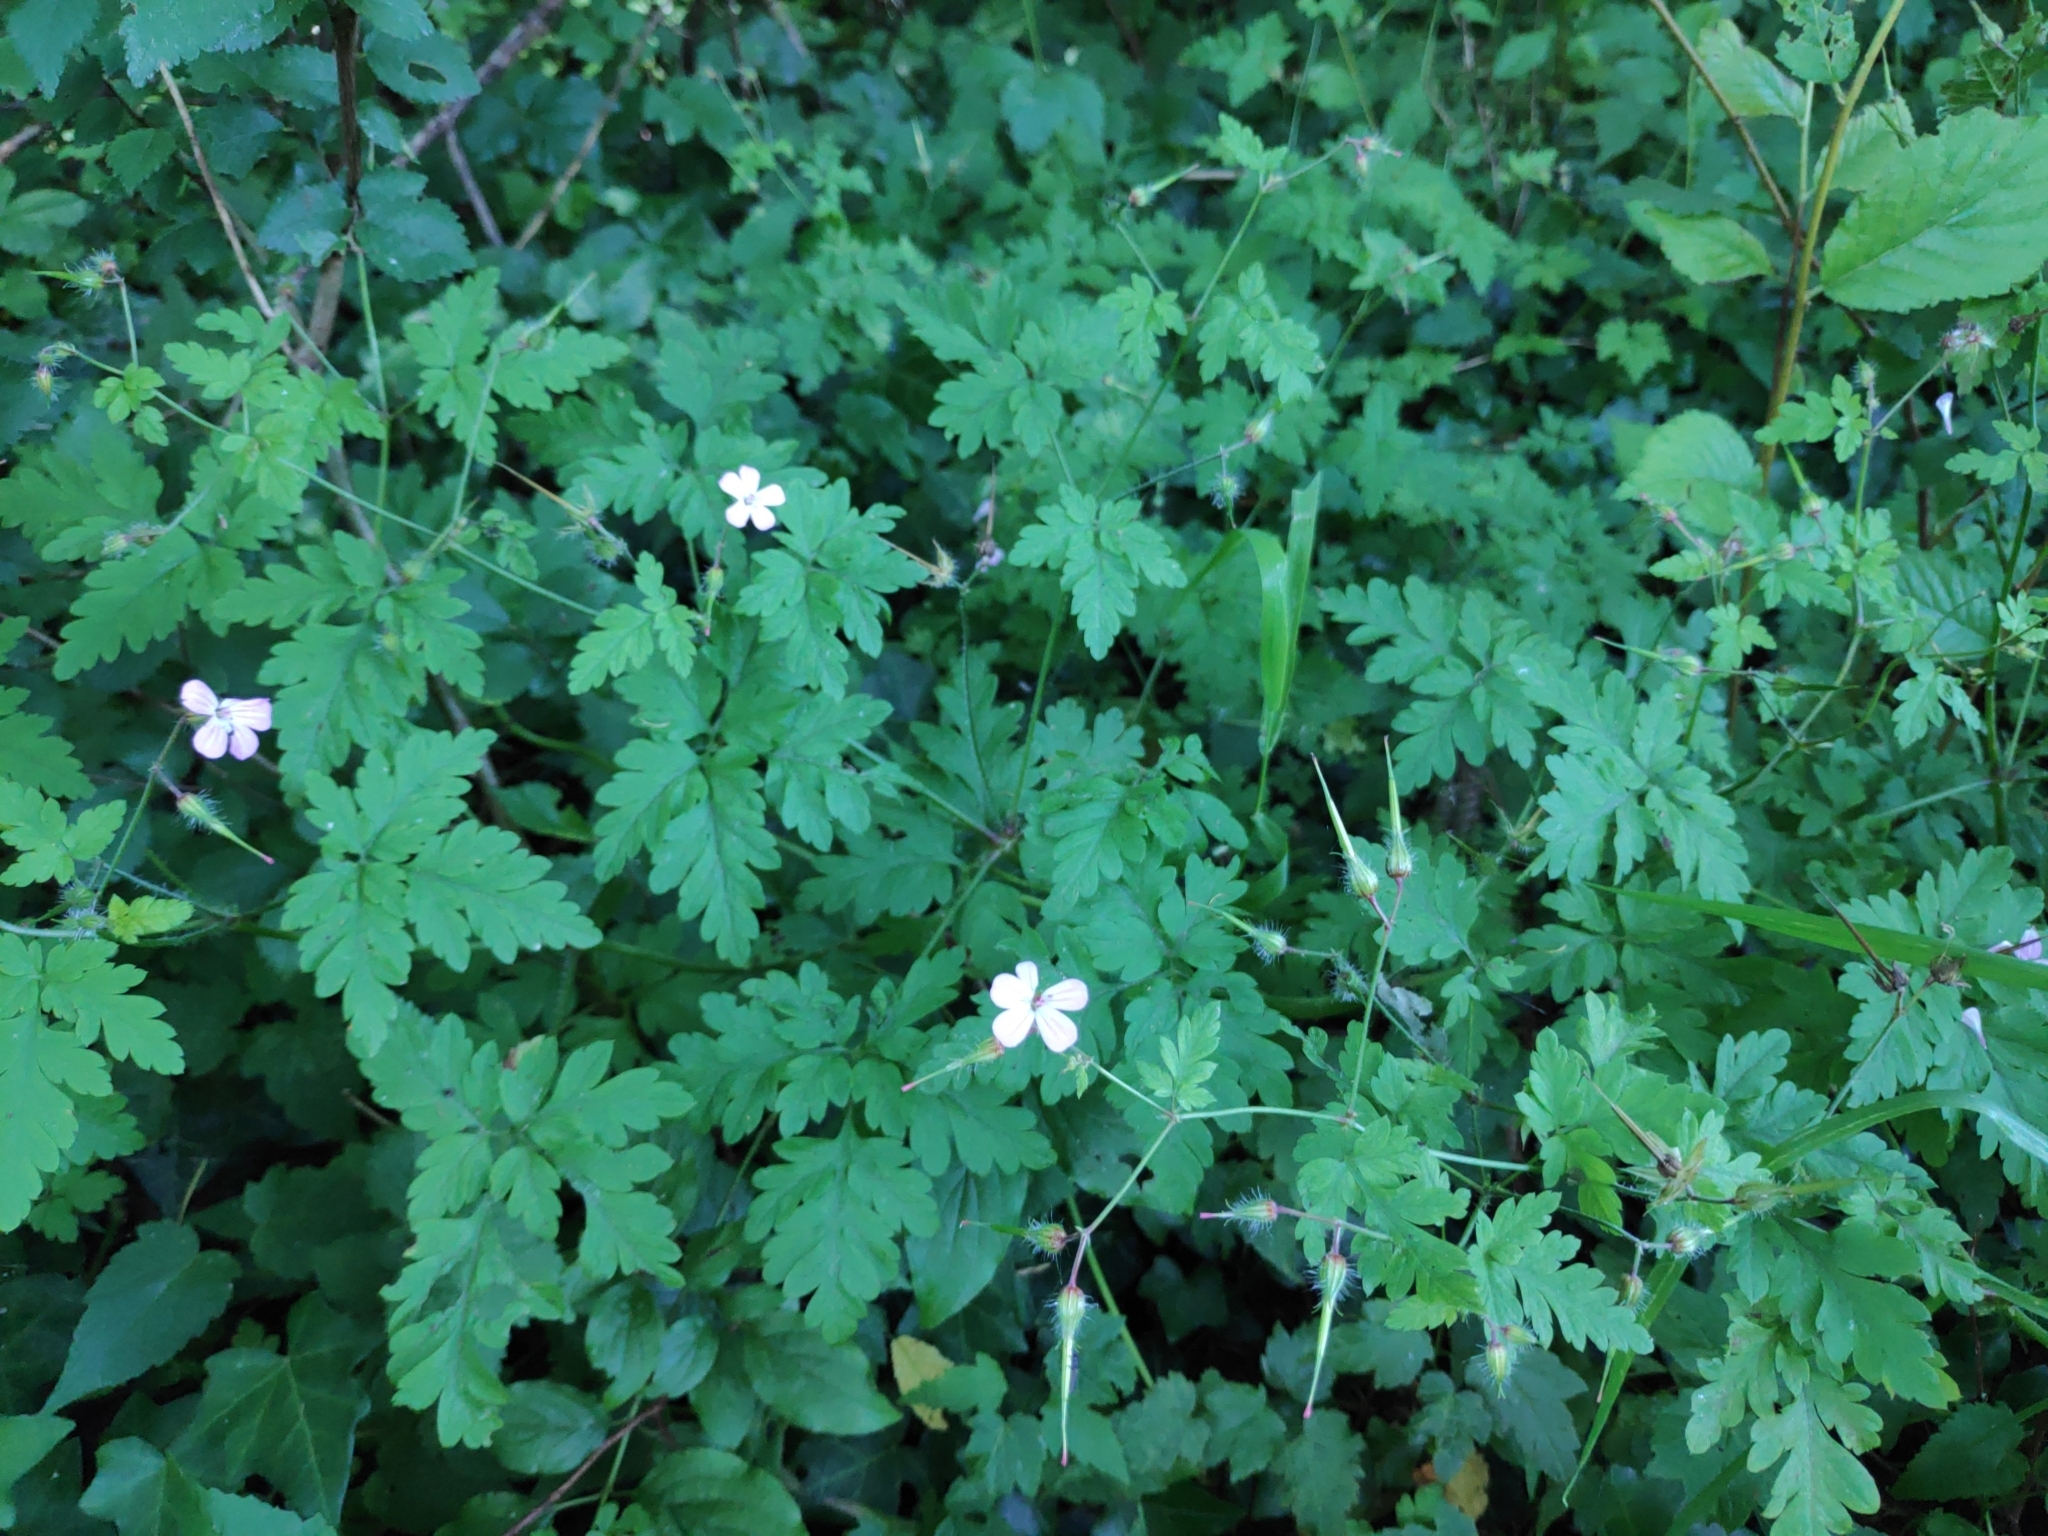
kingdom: Plantae
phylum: Tracheophyta
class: Magnoliopsida
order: Geraniales
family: Geraniaceae
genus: Geranium
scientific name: Geranium robertianum
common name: Herb-robert
